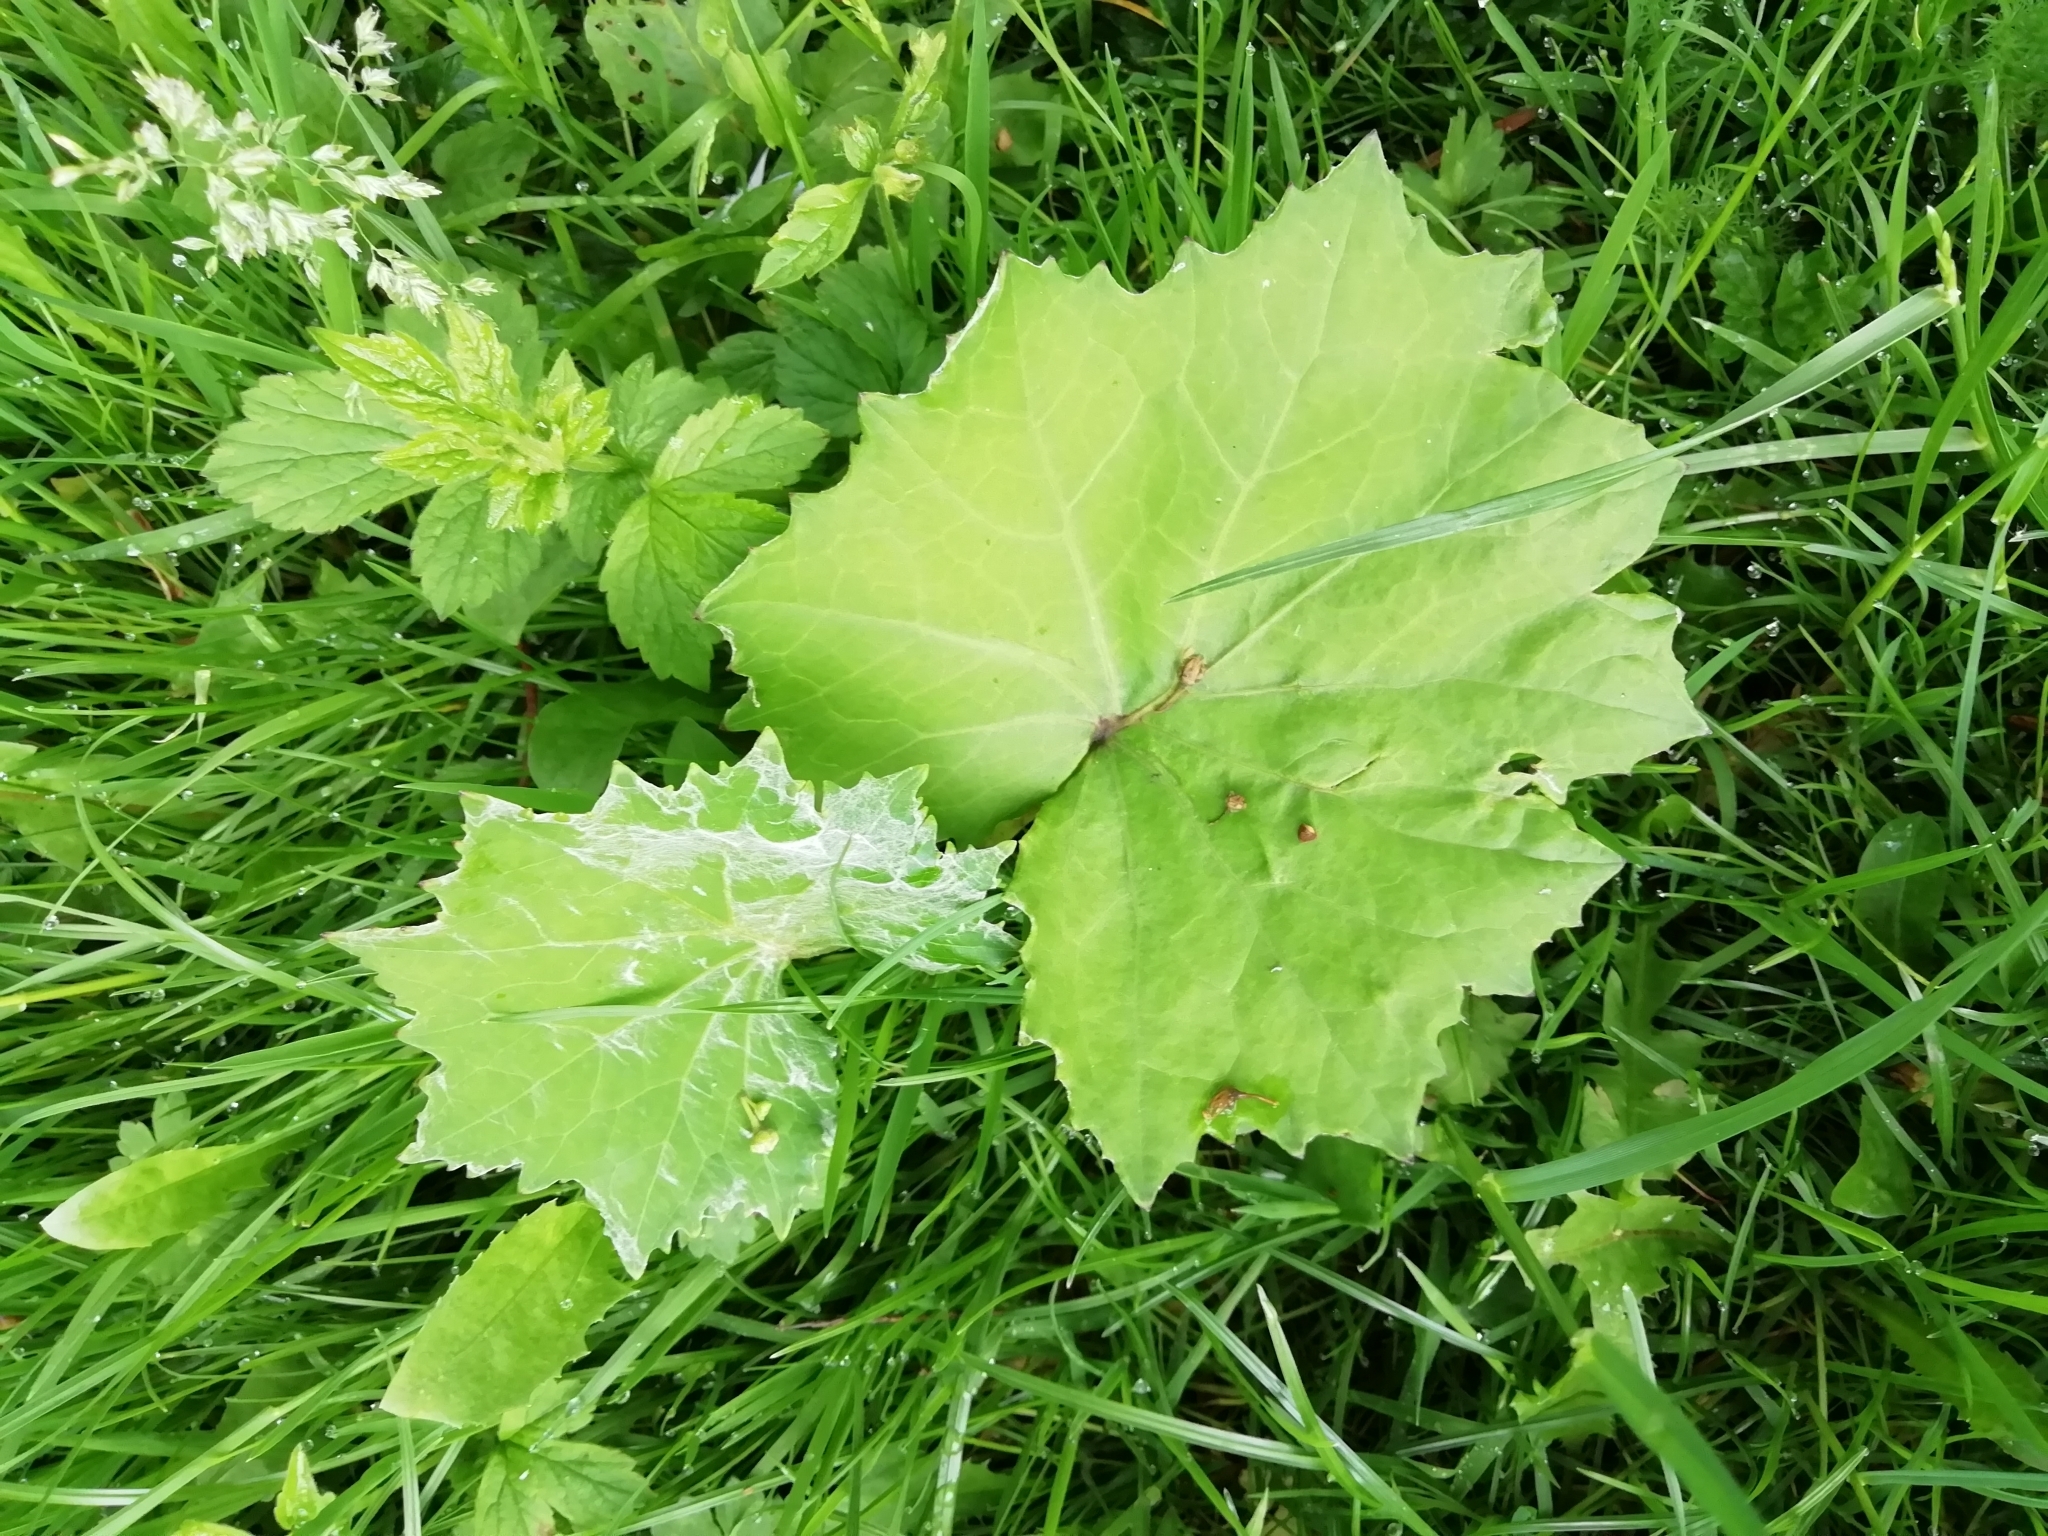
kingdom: Plantae
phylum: Tracheophyta
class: Magnoliopsida
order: Asterales
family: Asteraceae
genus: Tussilago
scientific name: Tussilago farfara
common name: Coltsfoot
